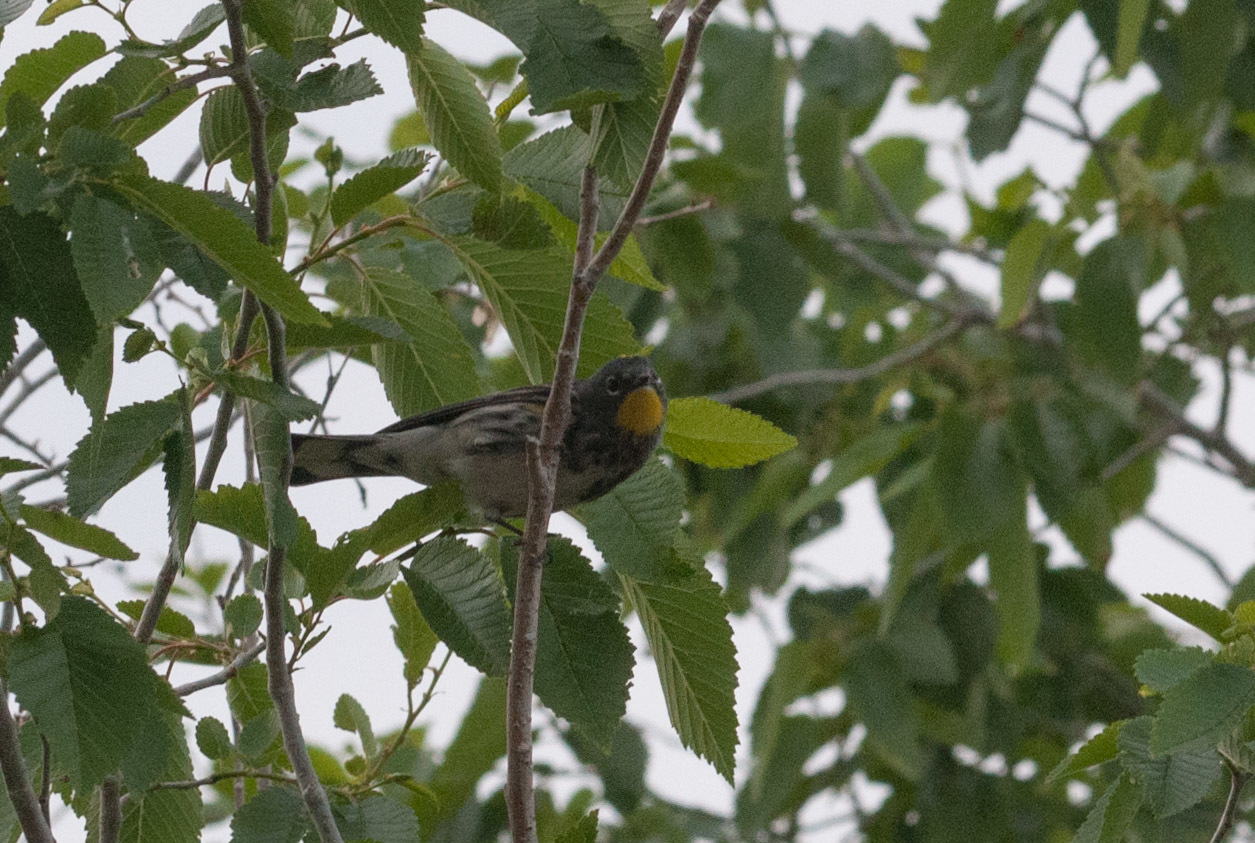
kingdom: Animalia
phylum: Chordata
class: Aves
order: Passeriformes
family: Parulidae
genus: Setophaga
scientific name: Setophaga coronata
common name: Myrtle warbler
